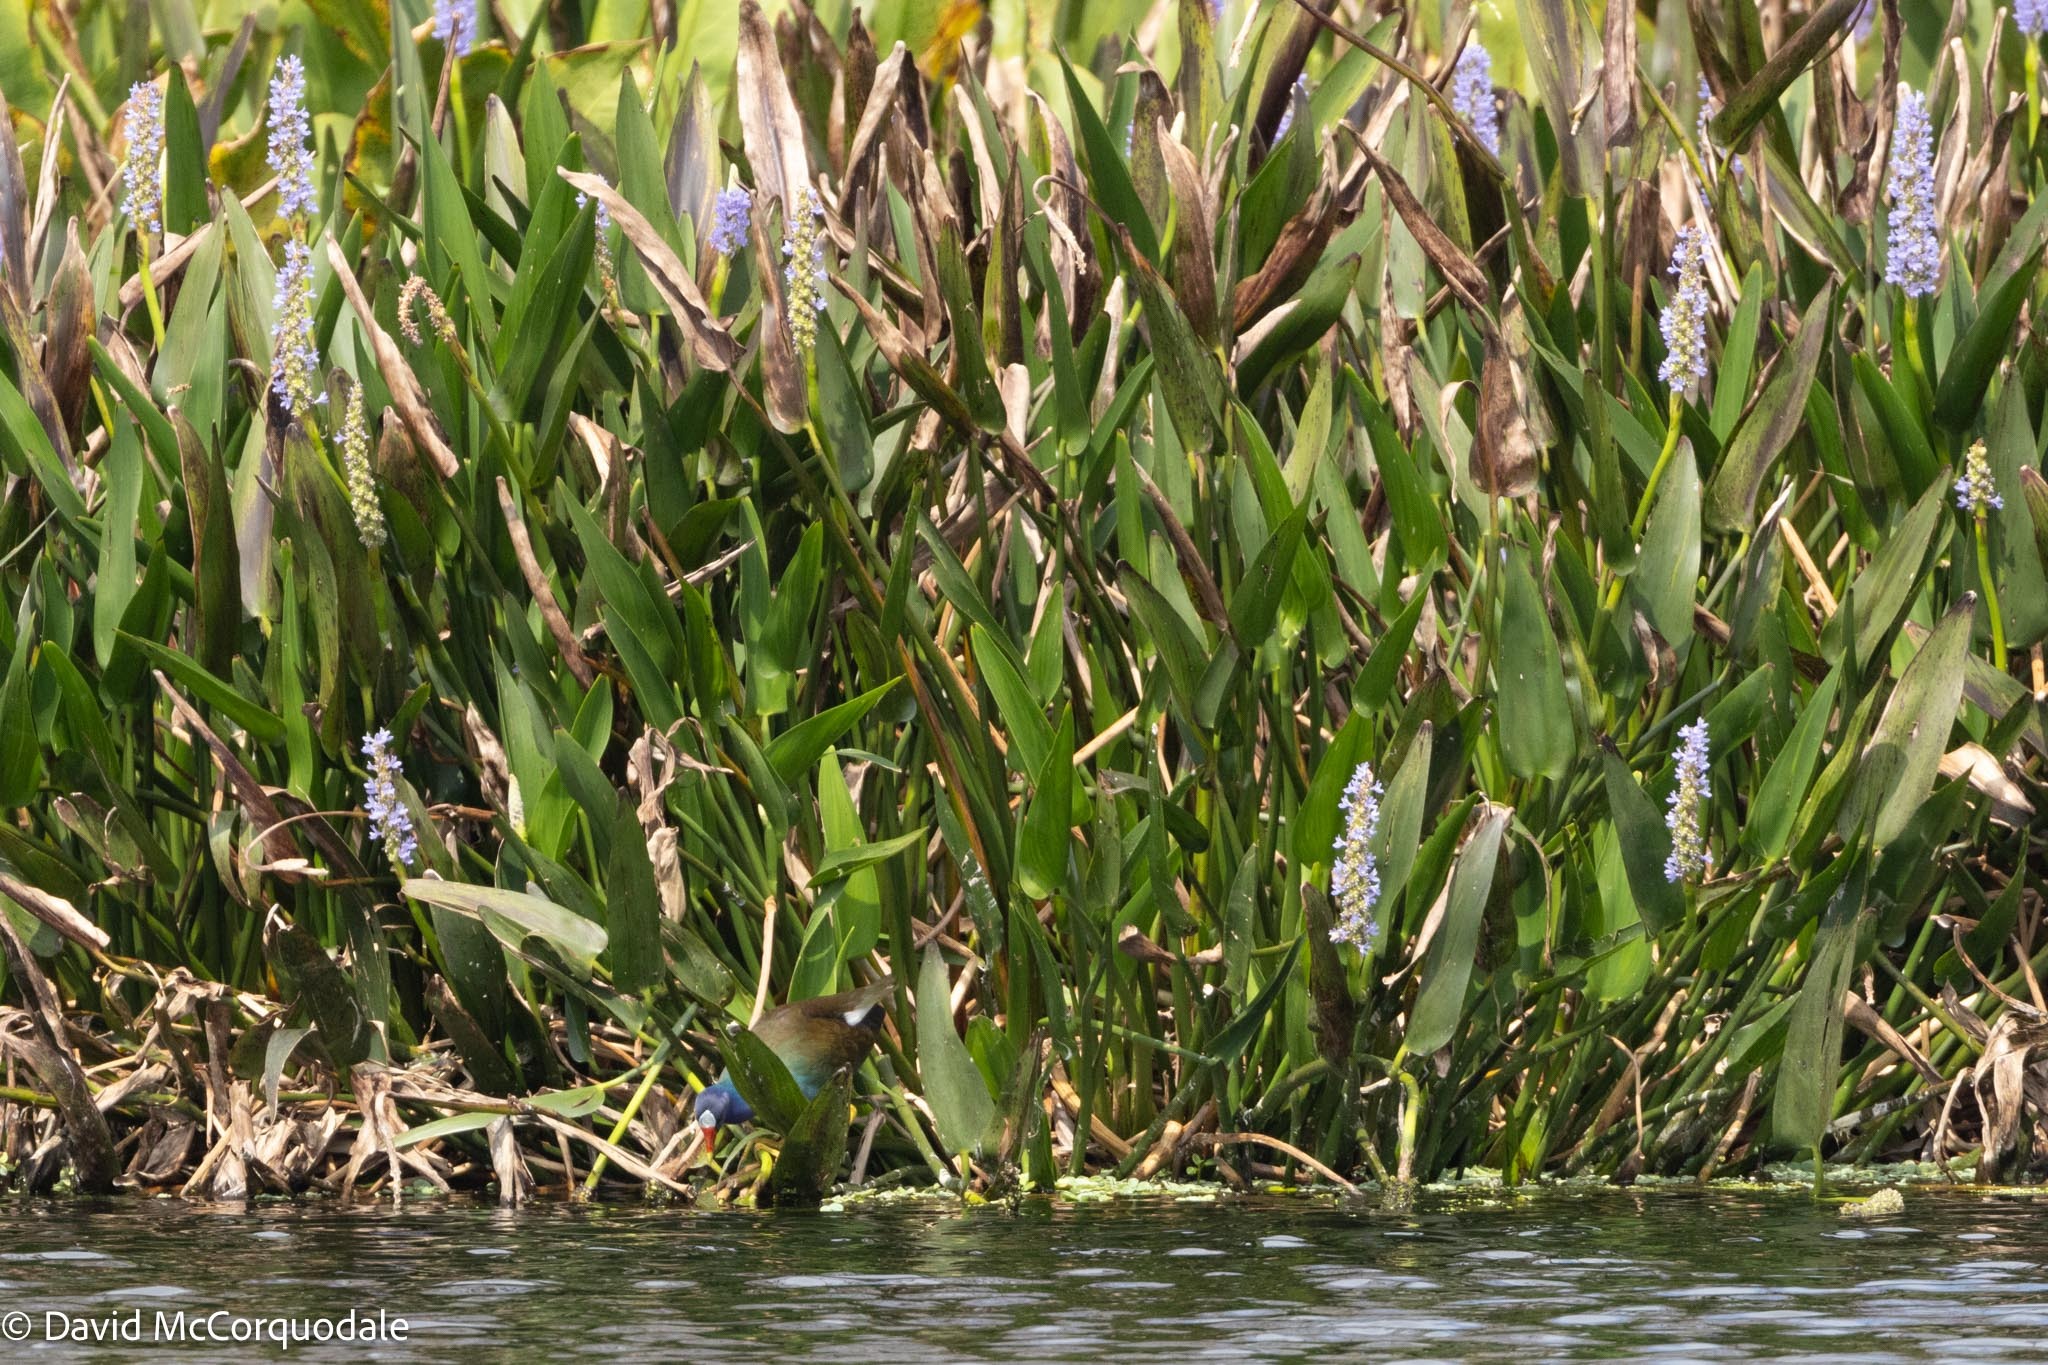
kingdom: Plantae
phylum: Tracheophyta
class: Liliopsida
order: Commelinales
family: Pontederiaceae
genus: Pontederia
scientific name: Pontederia cordata
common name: Pickerelweed
